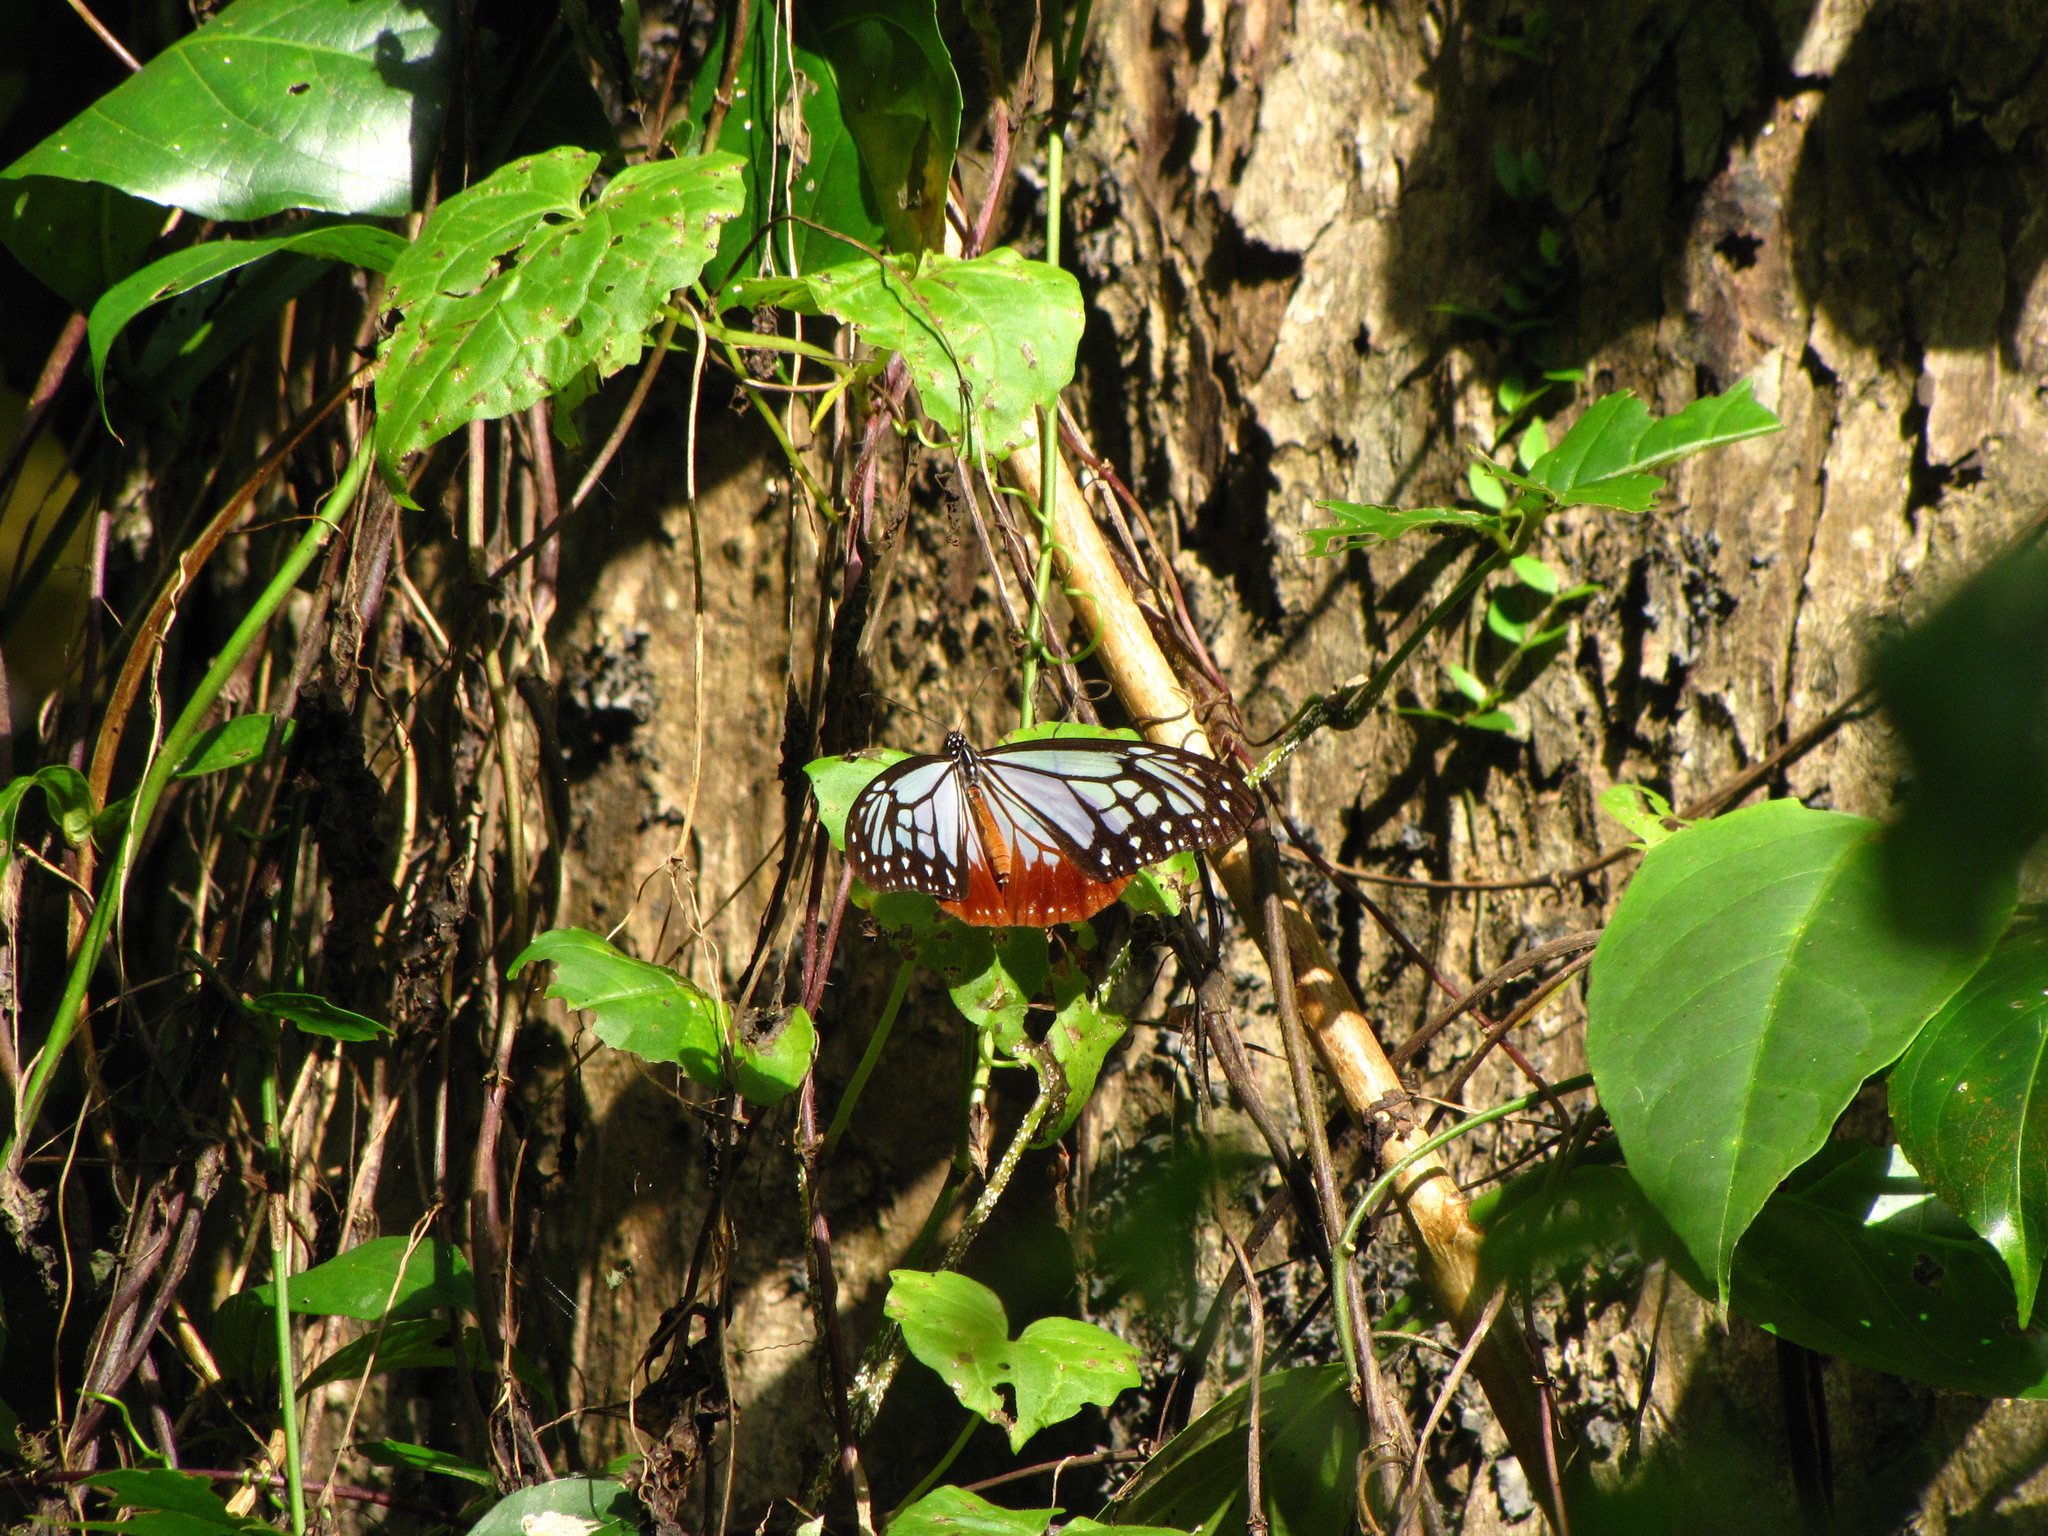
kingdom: Animalia
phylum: Arthropoda
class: Insecta
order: Lepidoptera
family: Nymphalidae
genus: Parantica
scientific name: Parantica sita
